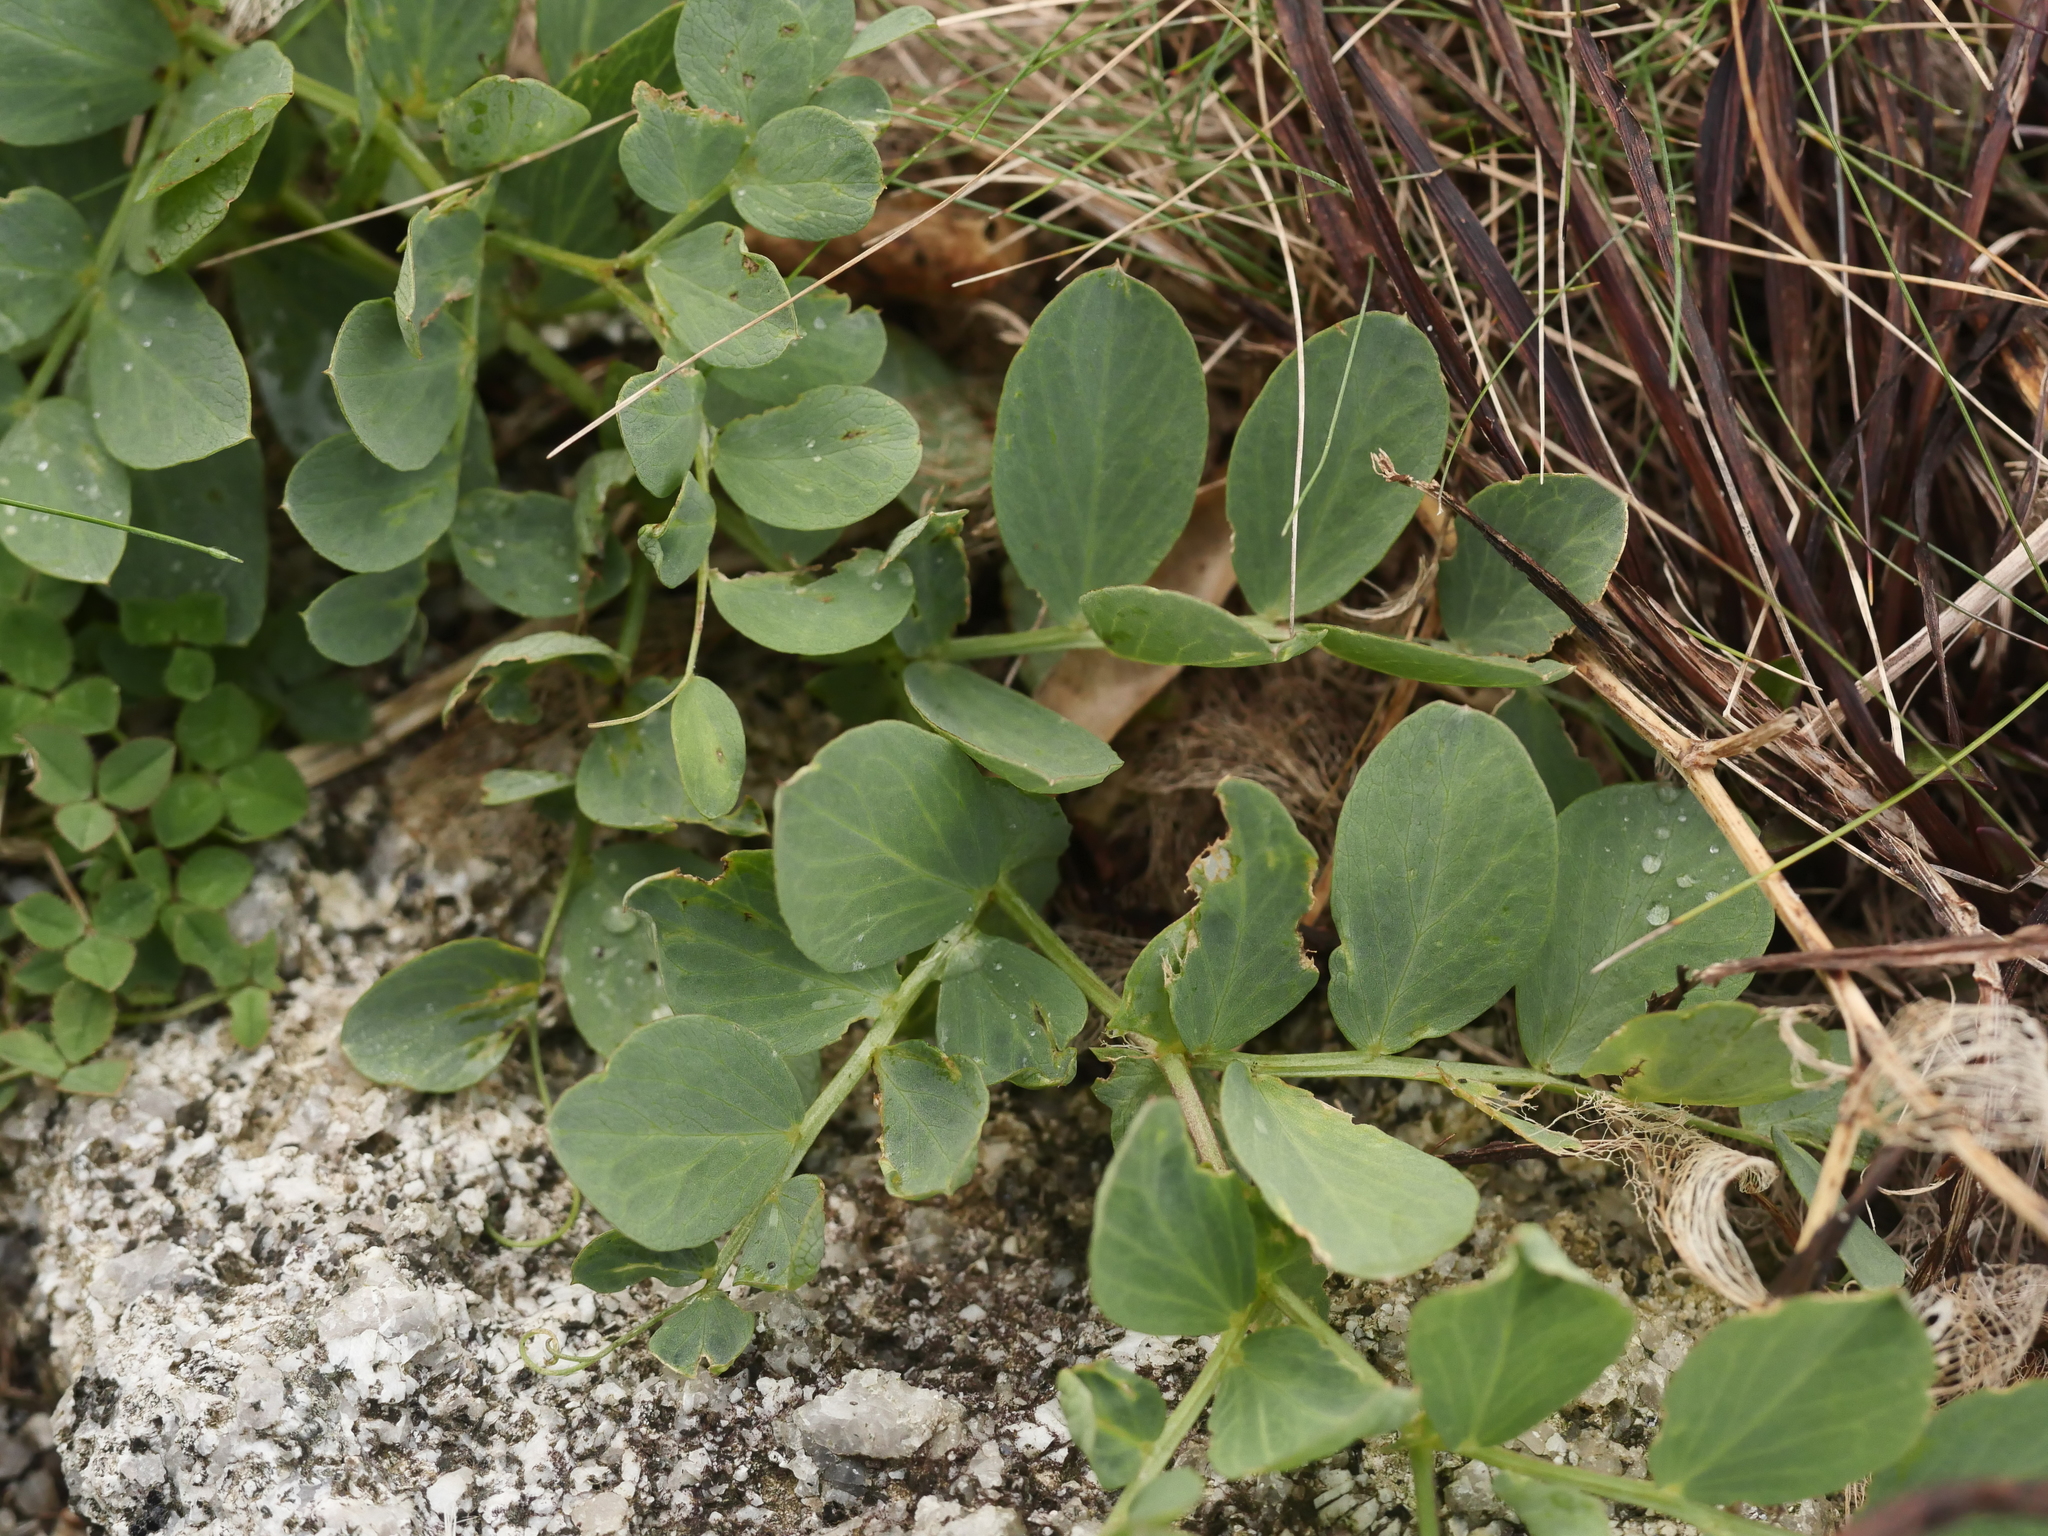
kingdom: Plantae
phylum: Tracheophyta
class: Magnoliopsida
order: Fabales
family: Fabaceae
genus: Lathyrus
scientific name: Lathyrus japonicus
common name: Sea pea
